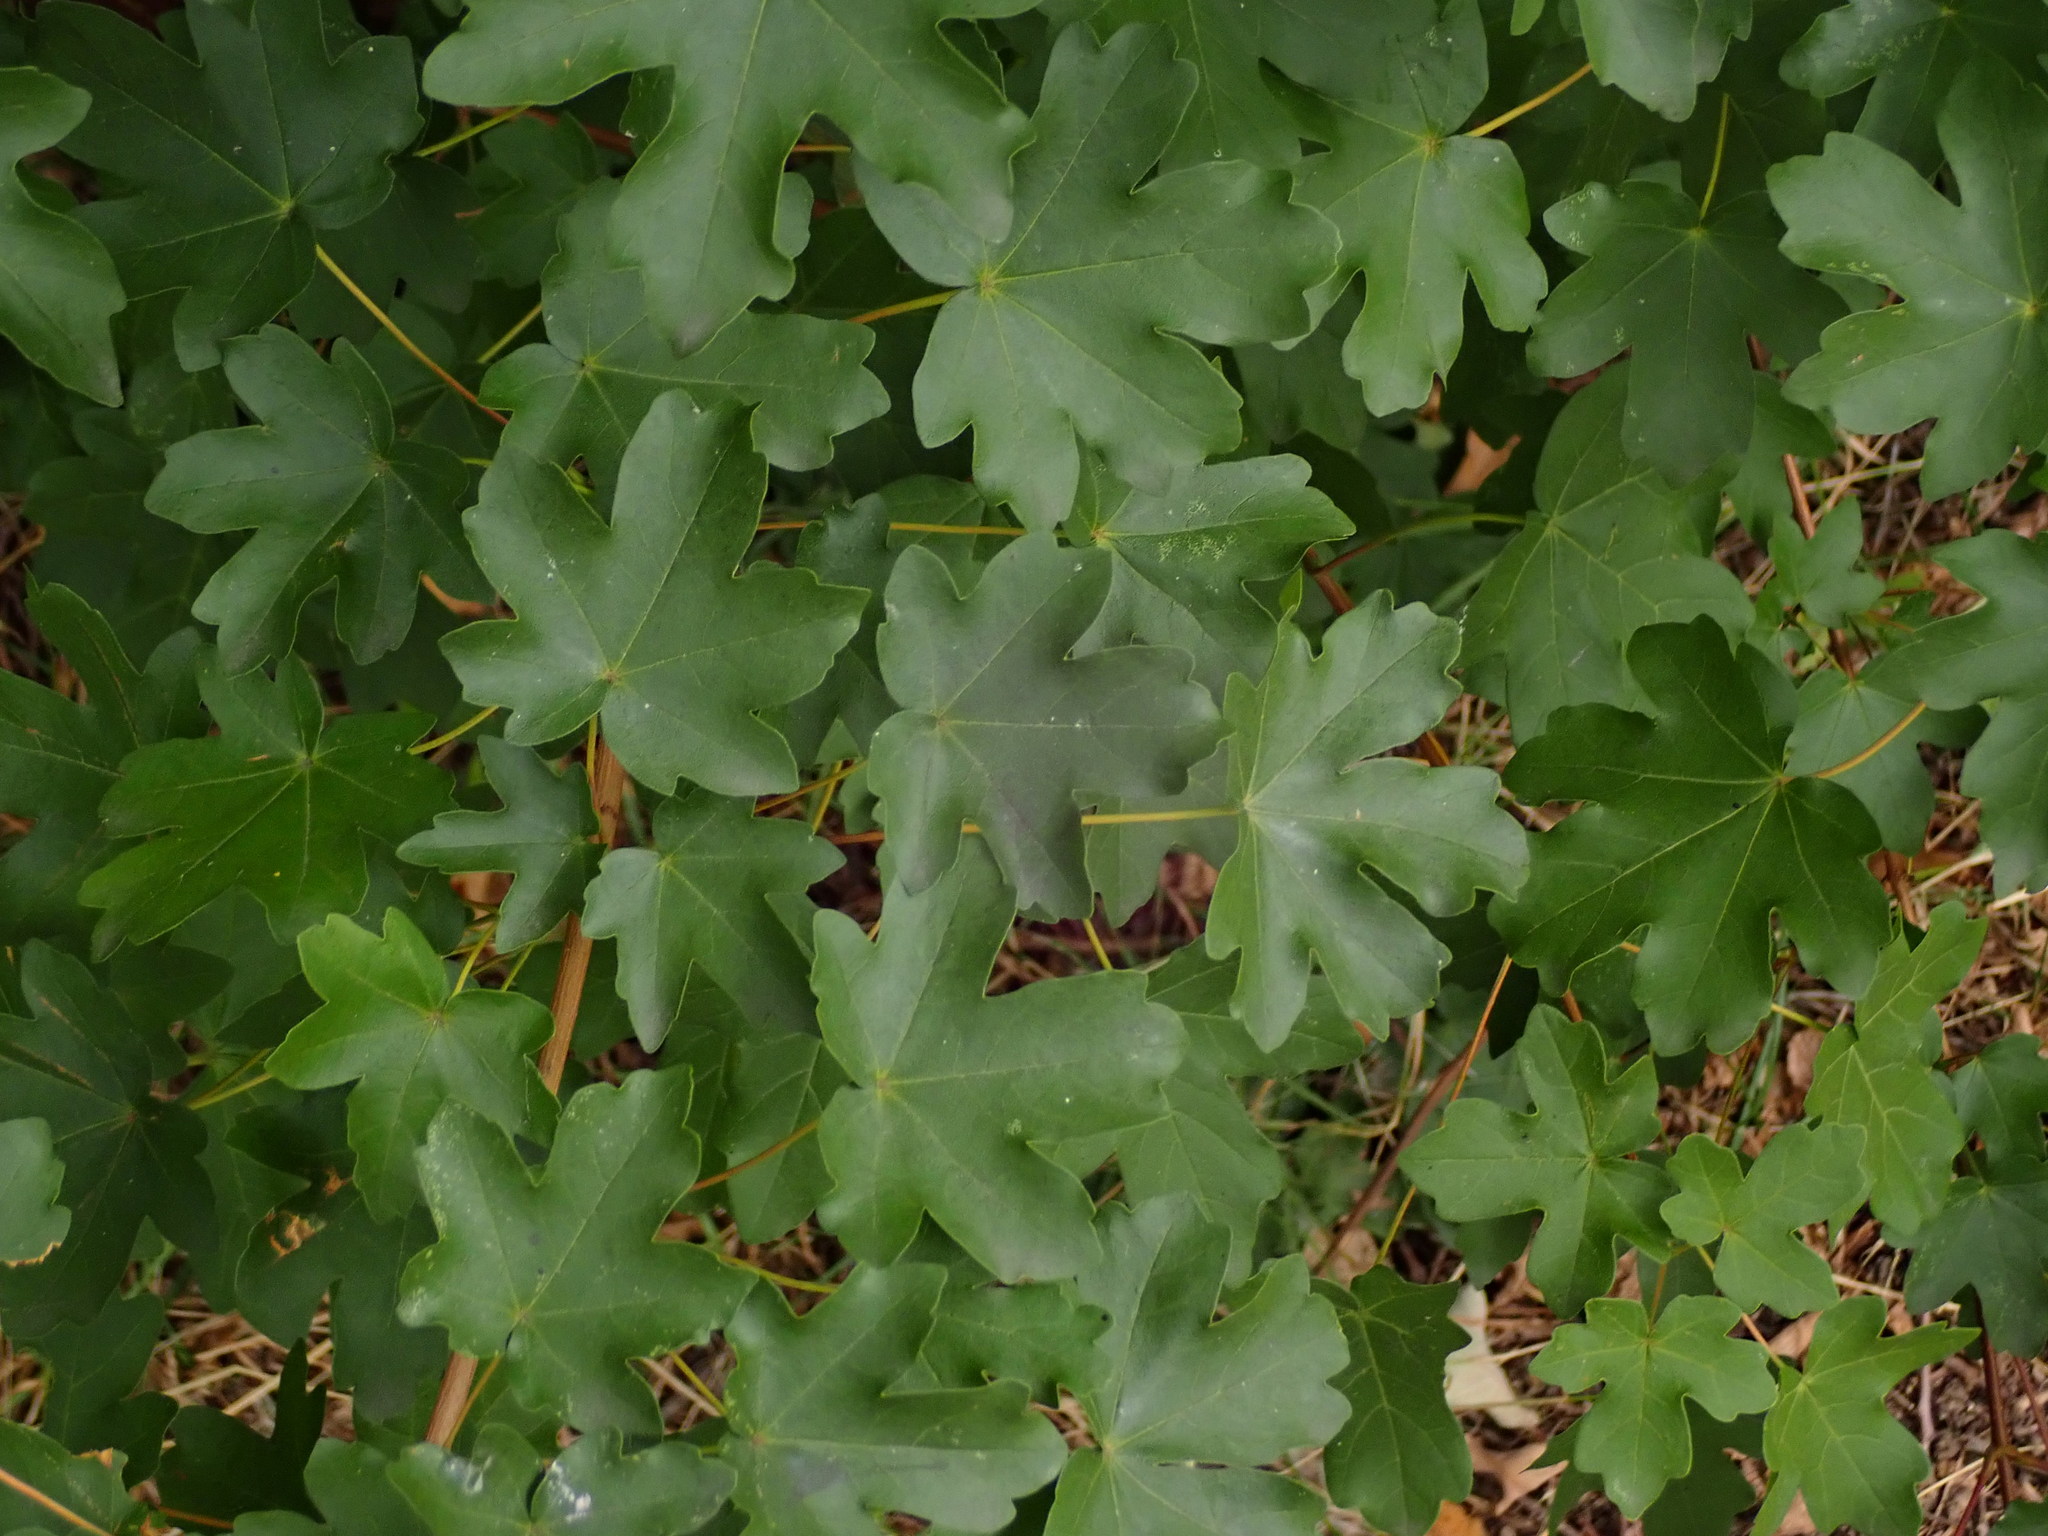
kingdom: Plantae
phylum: Tracheophyta
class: Magnoliopsida
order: Sapindales
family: Sapindaceae
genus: Acer
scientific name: Acer campestre
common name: Field maple
